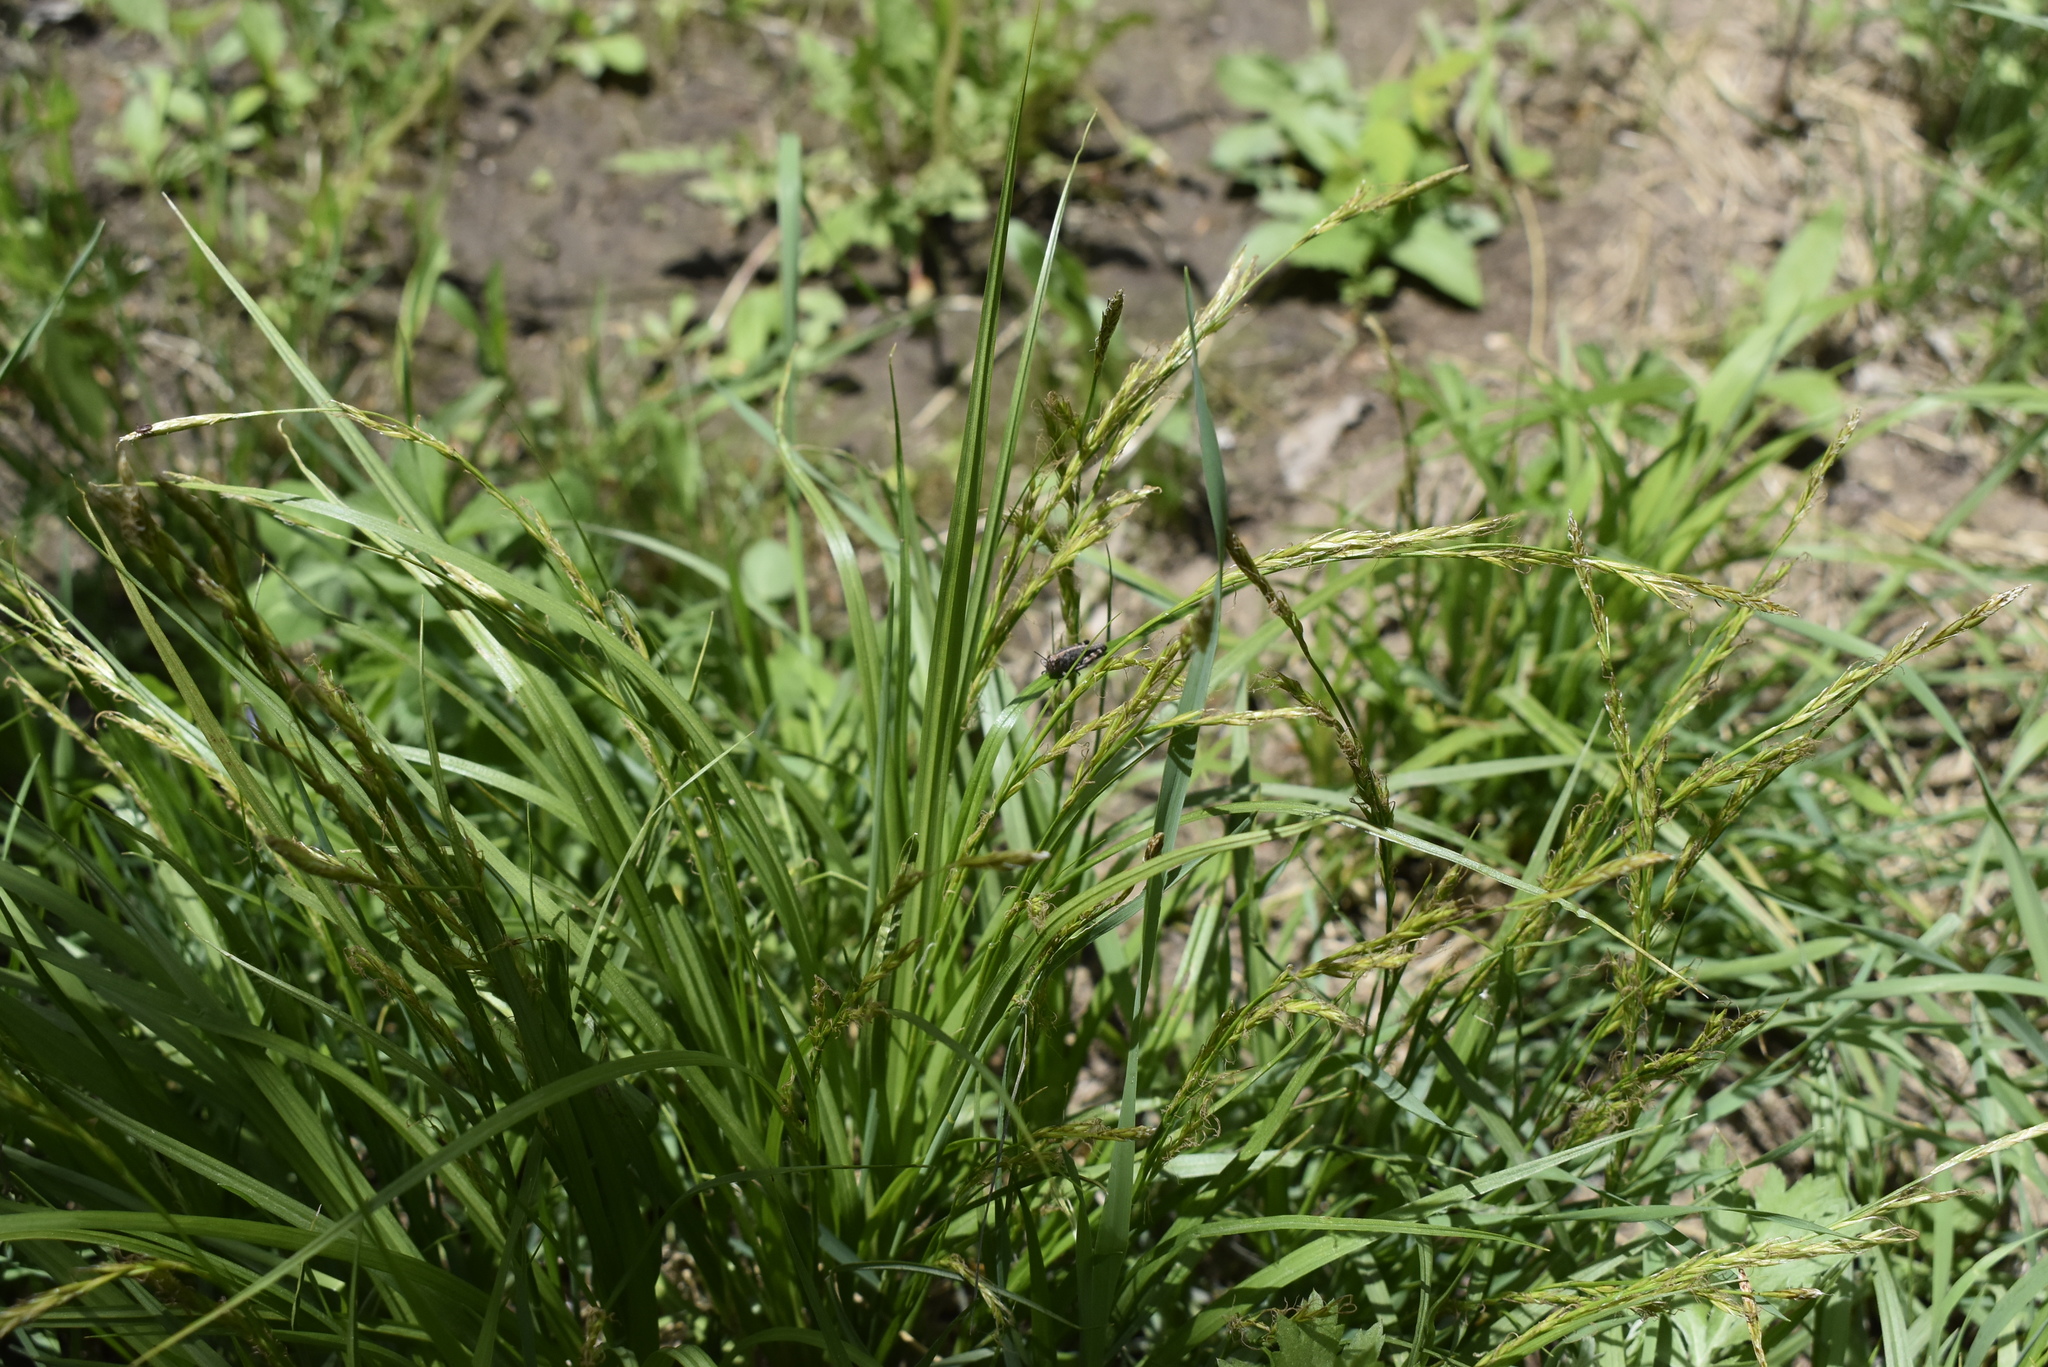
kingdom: Plantae
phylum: Tracheophyta
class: Liliopsida
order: Poales
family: Cyperaceae
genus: Carex
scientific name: Carex bostrychostigma
